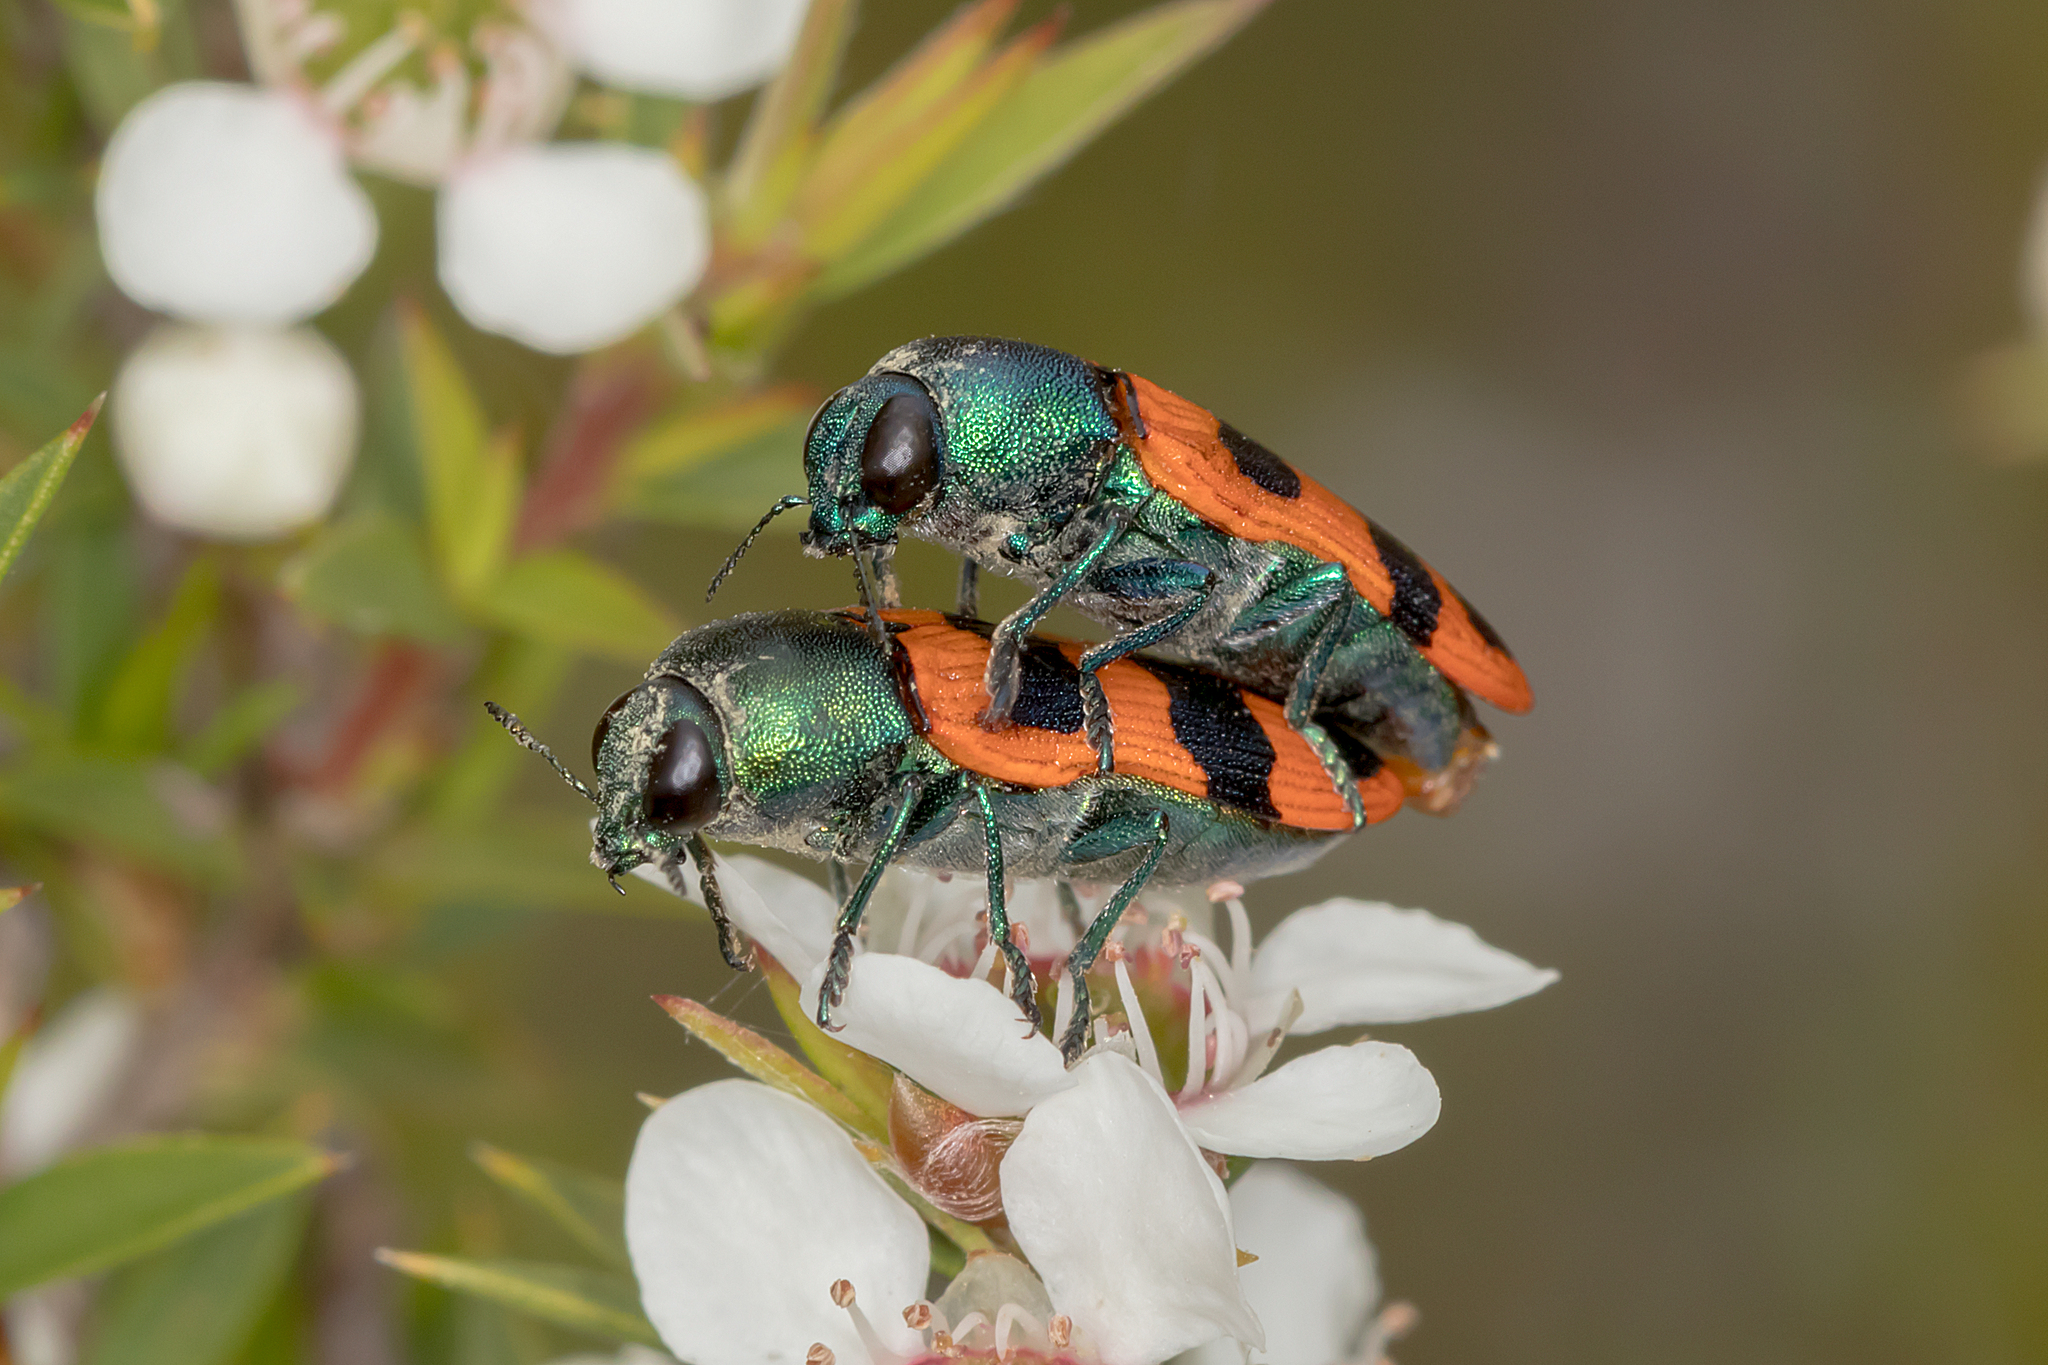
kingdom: Animalia
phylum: Arthropoda
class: Insecta
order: Coleoptera
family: Buprestidae
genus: Castiarina
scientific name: Castiarina crenata
